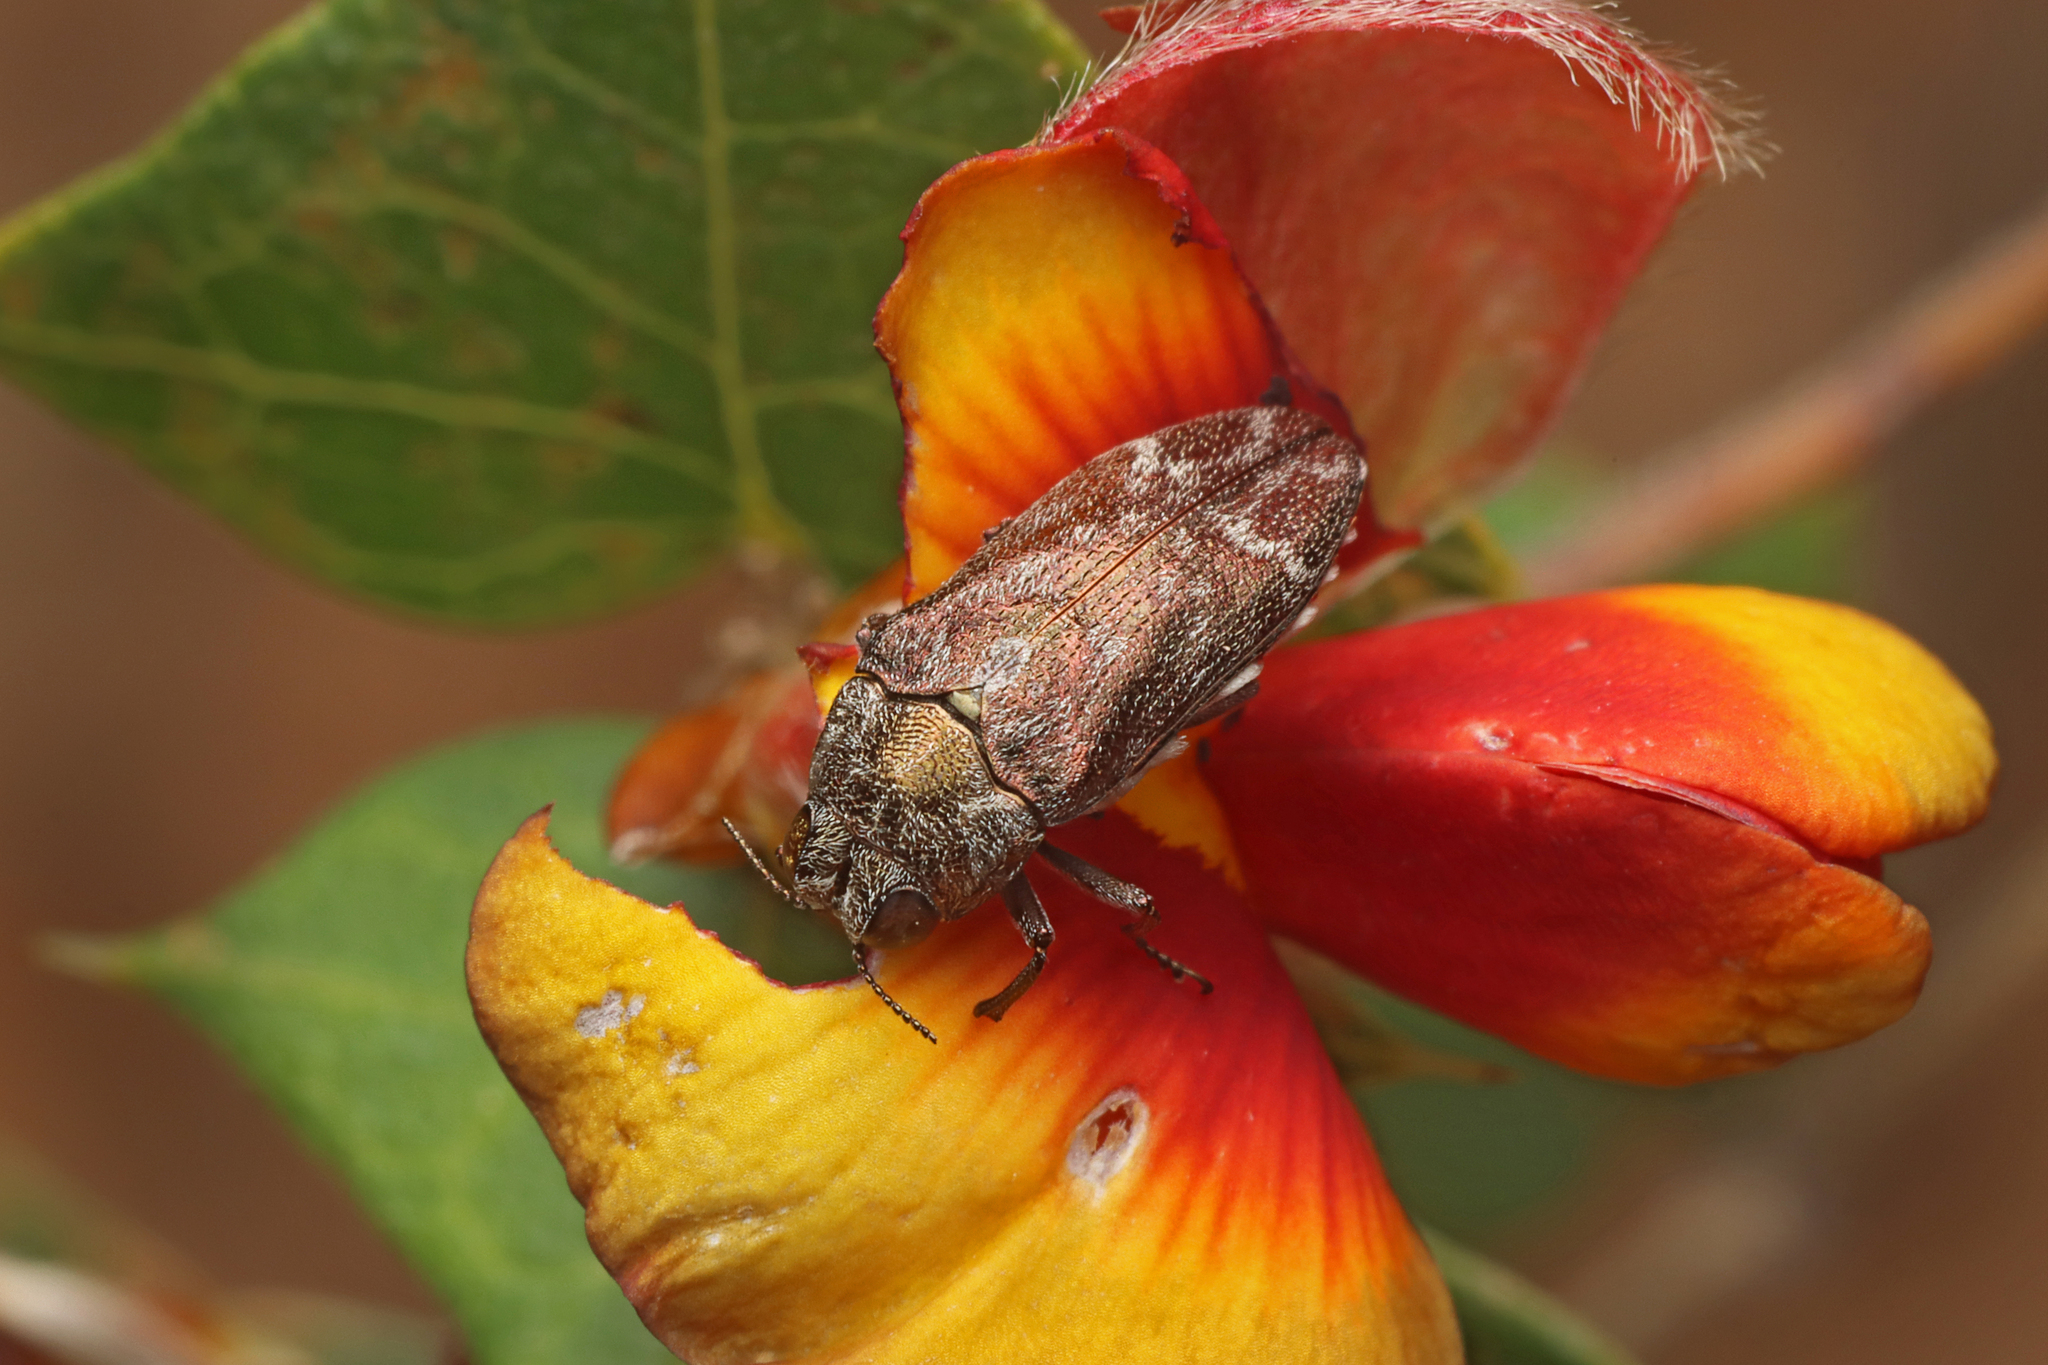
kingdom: Animalia
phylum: Arthropoda
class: Insecta
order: Coleoptera
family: Buprestidae
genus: Ethonion
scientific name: Ethonion reichei
